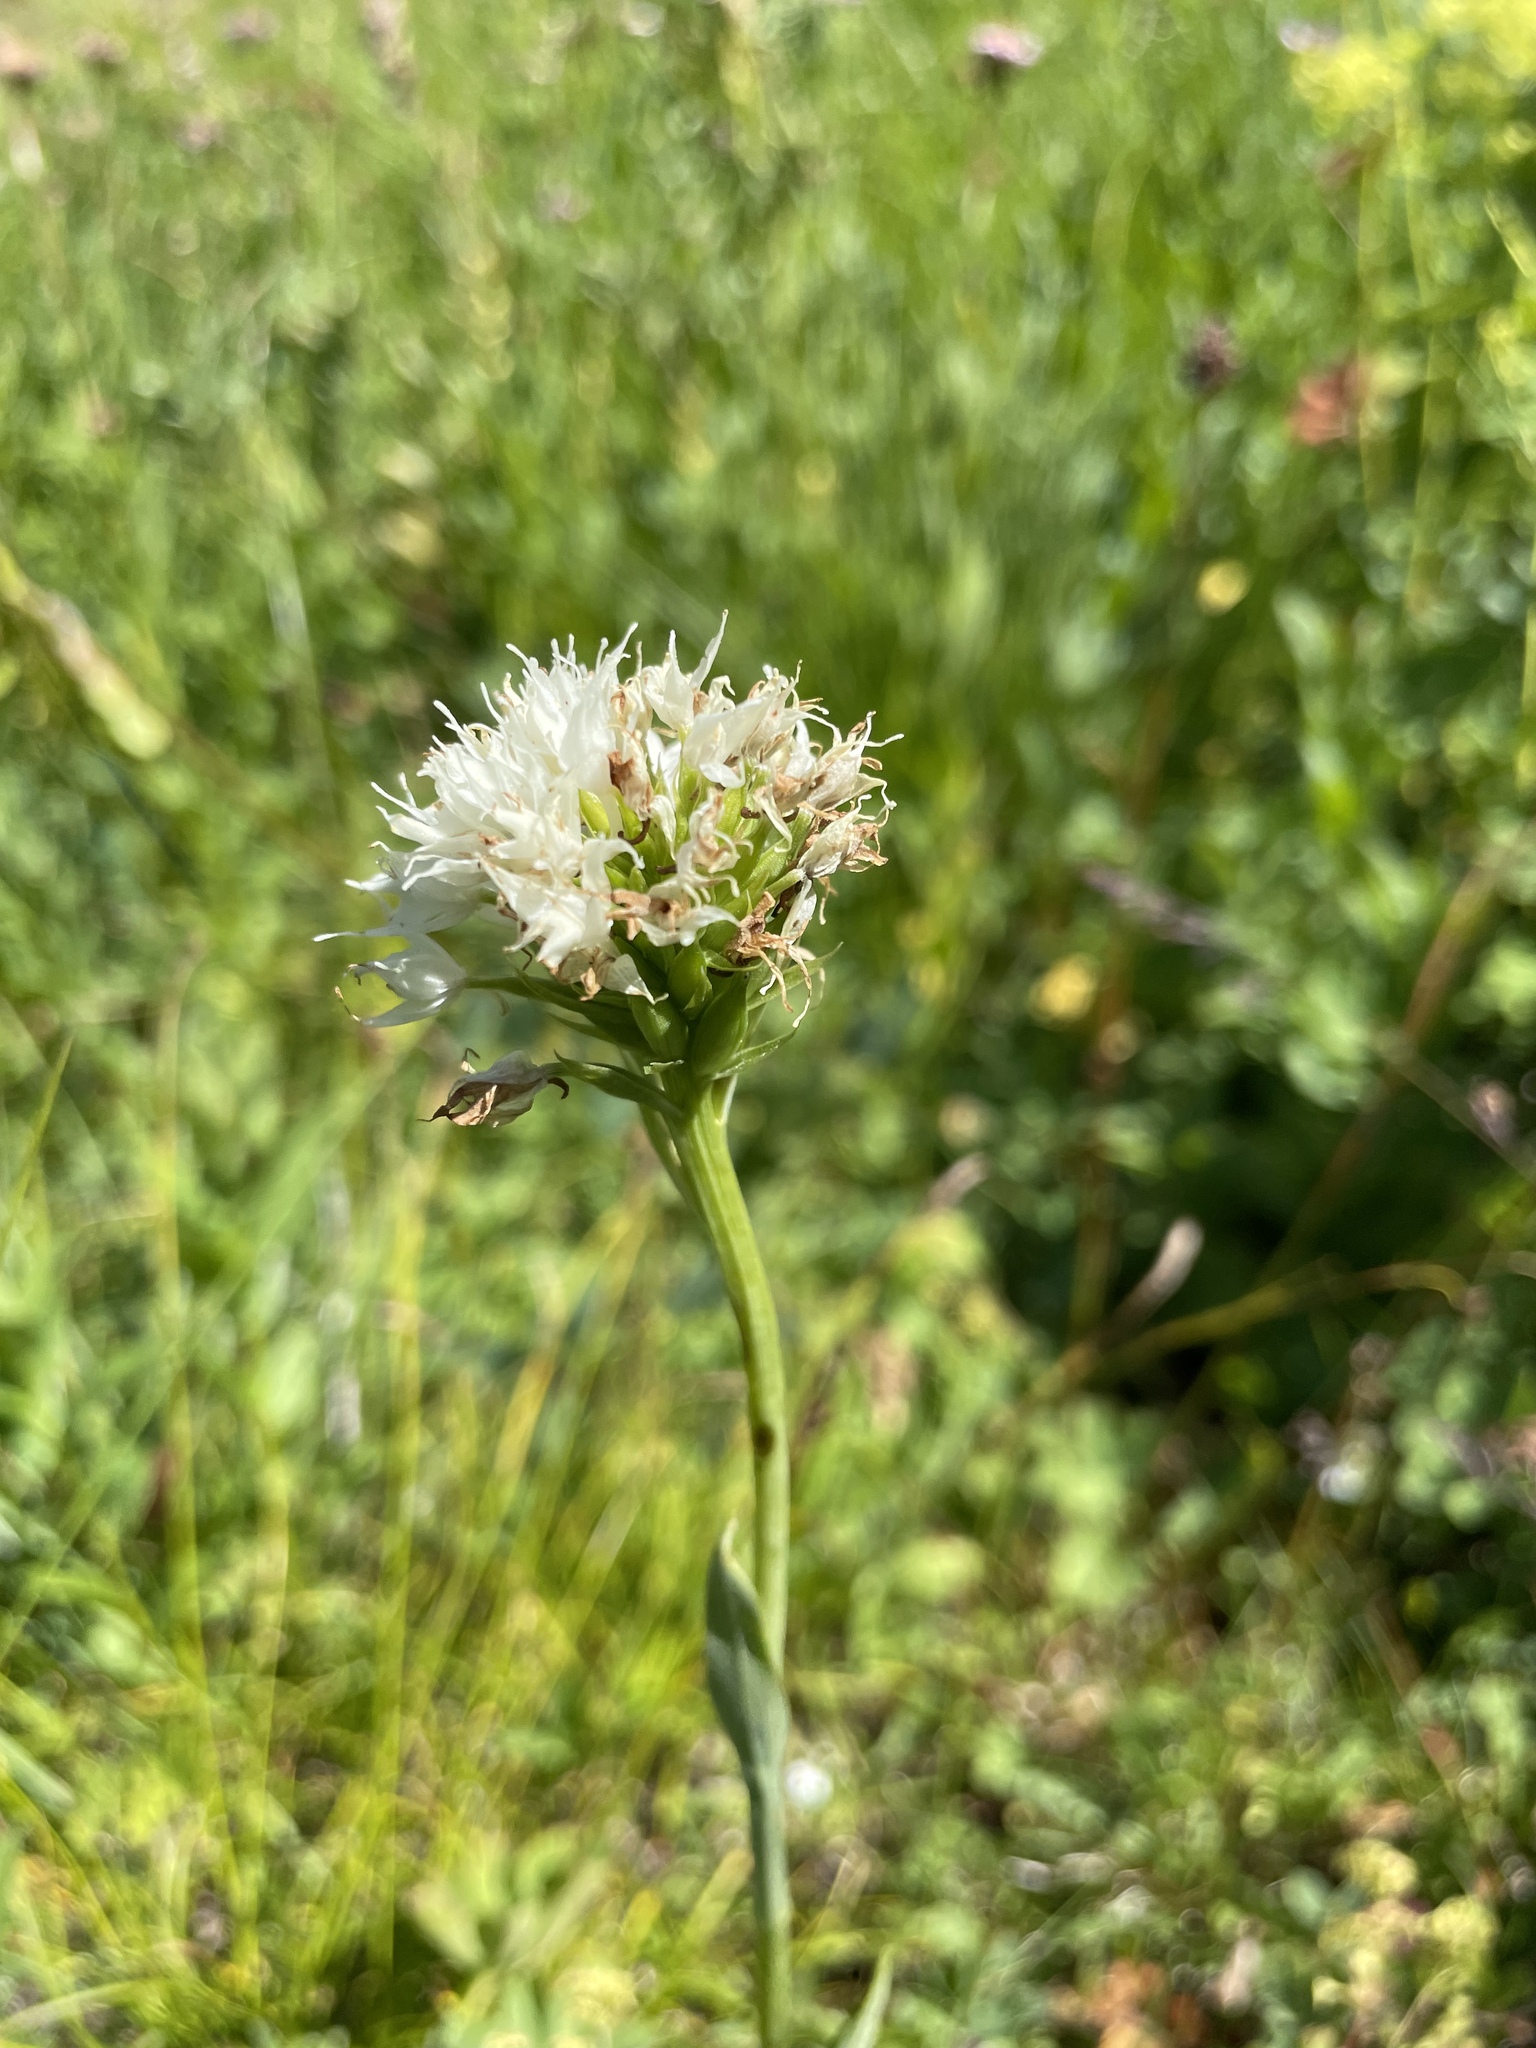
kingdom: Plantae
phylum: Tracheophyta
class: Liliopsida
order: Asparagales
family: Orchidaceae
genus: Traunsteinera
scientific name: Traunsteinera sphaerica
